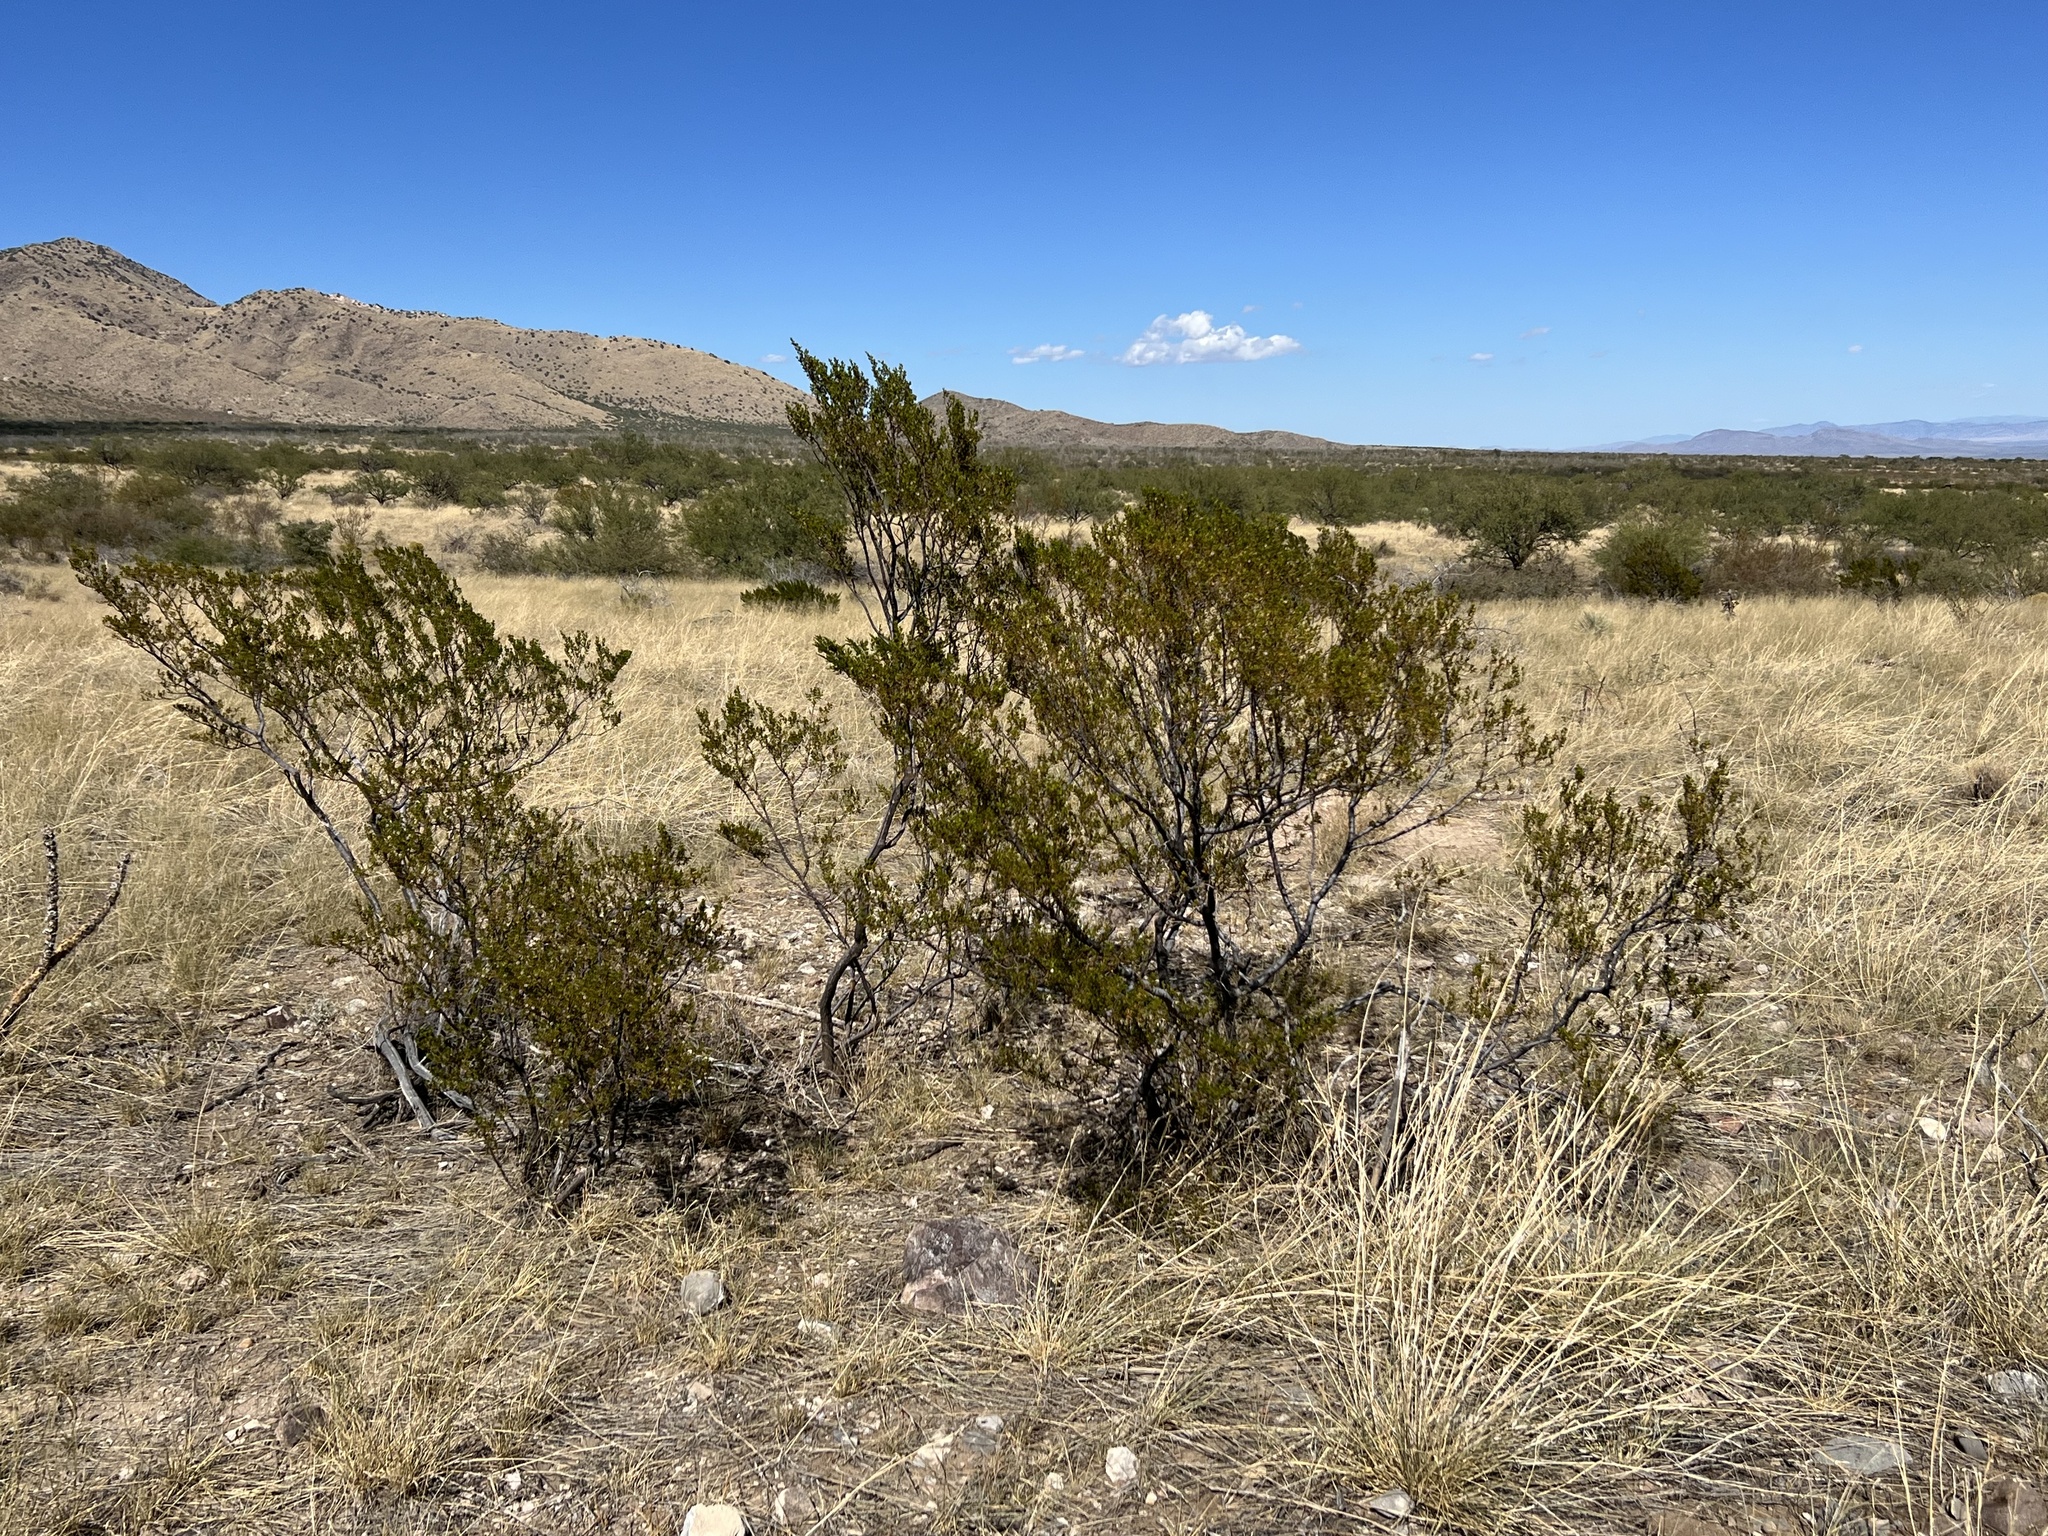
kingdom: Plantae
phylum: Tracheophyta
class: Magnoliopsida
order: Zygophyllales
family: Zygophyllaceae
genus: Larrea
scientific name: Larrea tridentata
